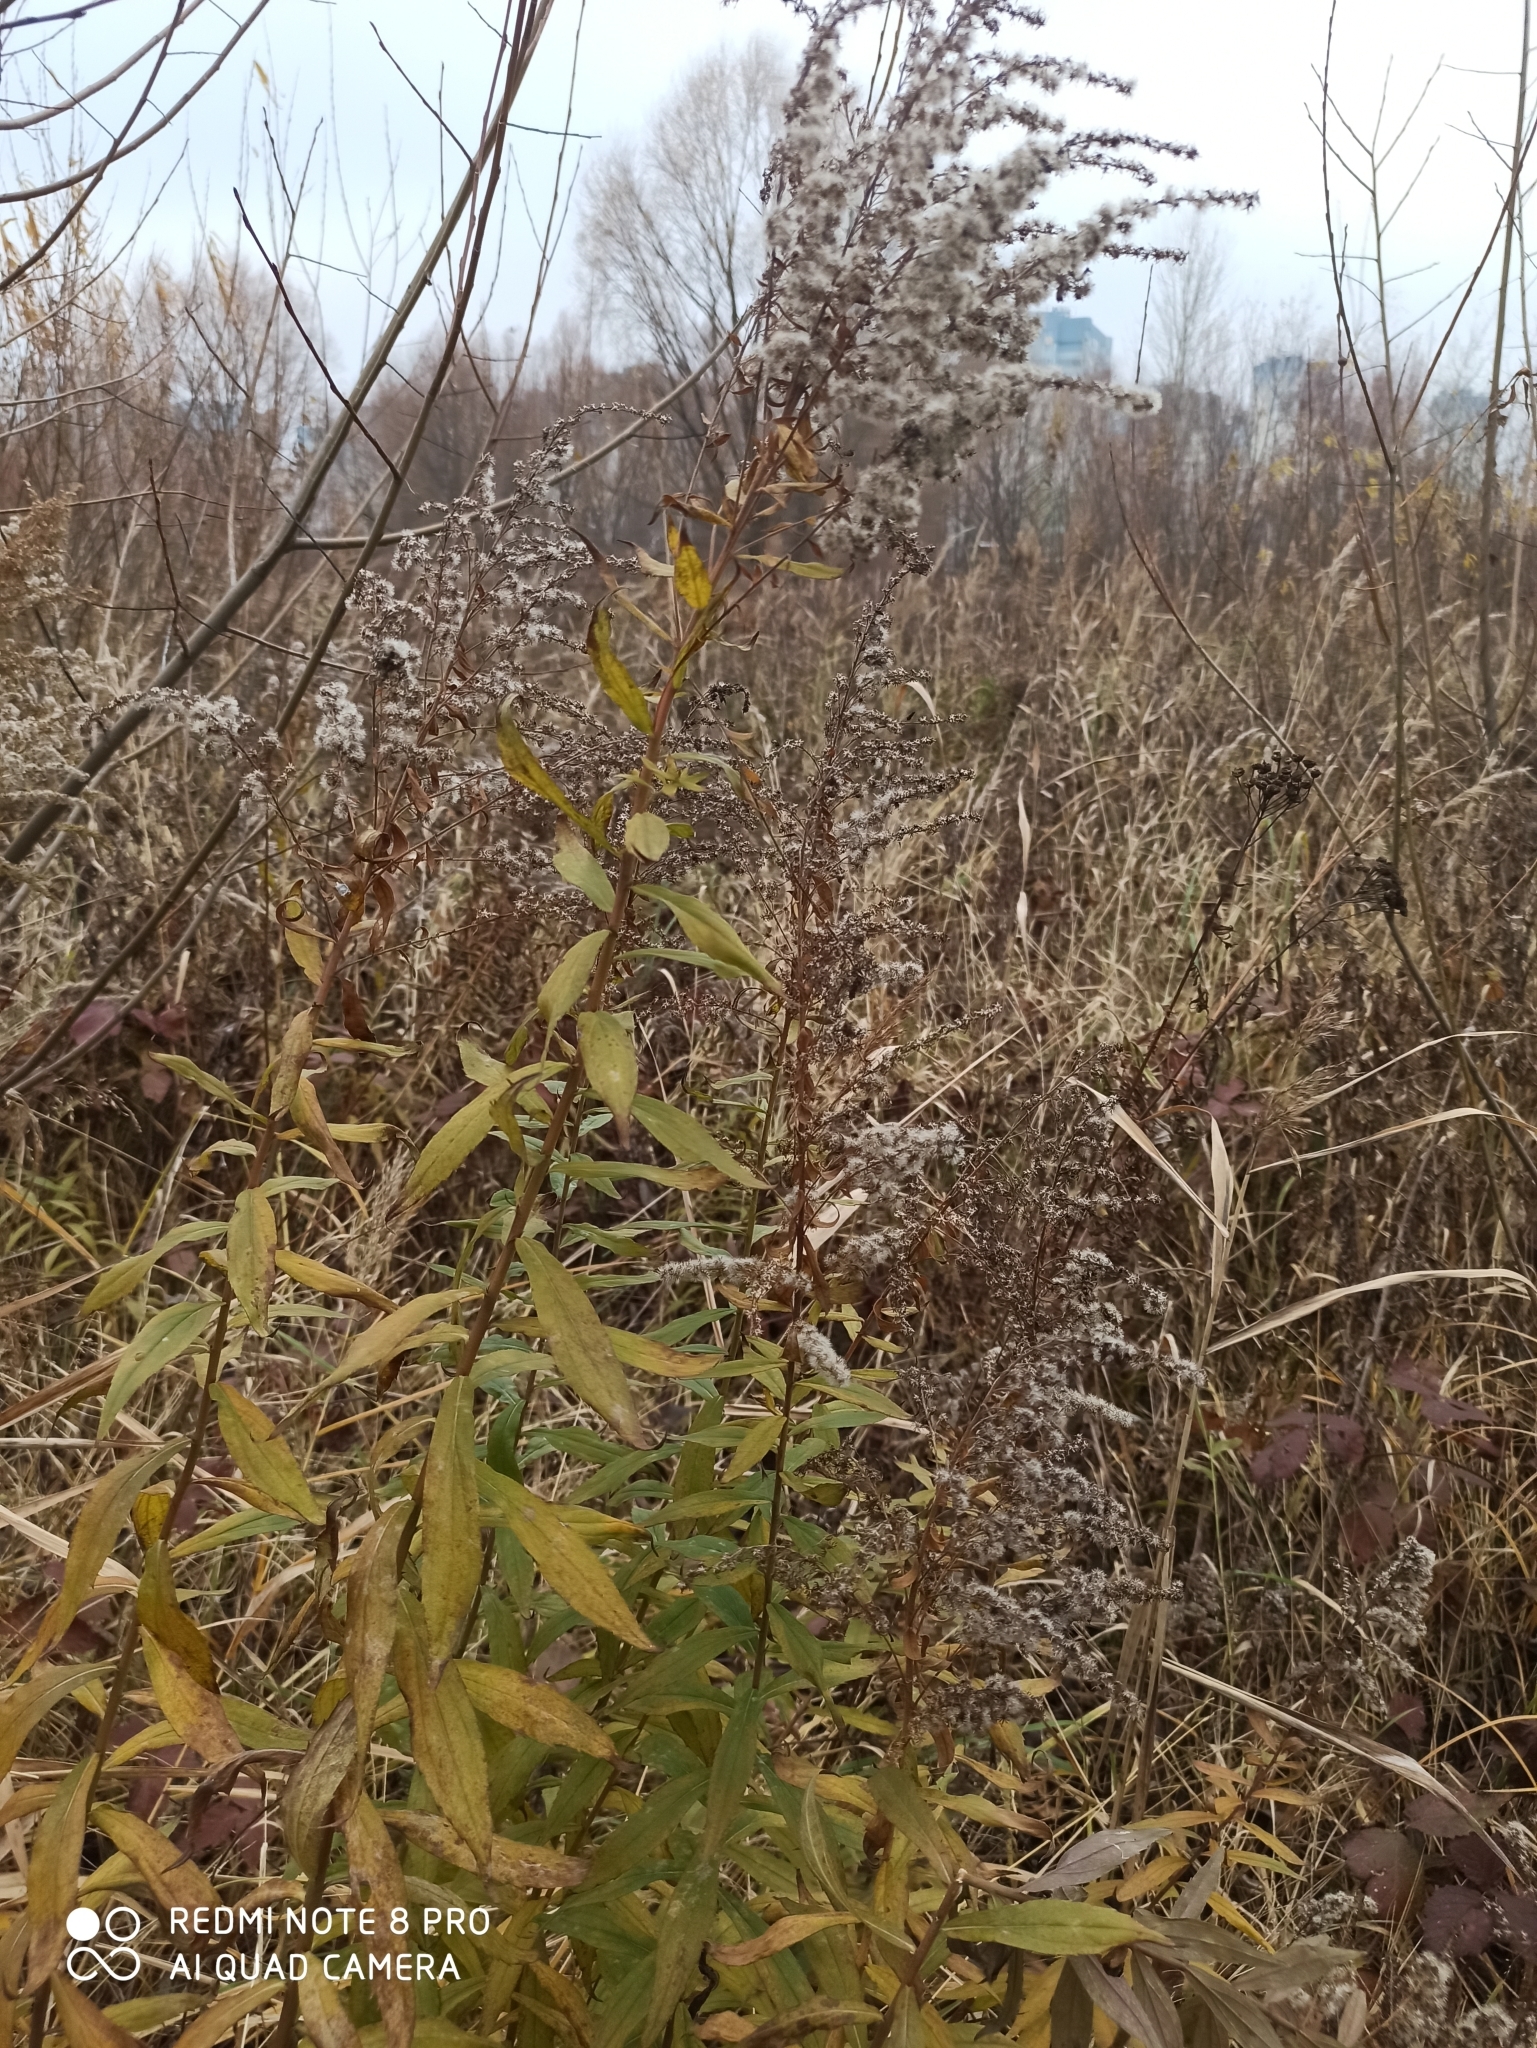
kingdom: Plantae
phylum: Tracheophyta
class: Magnoliopsida
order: Asterales
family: Asteraceae
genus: Solidago
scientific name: Solidago canadensis
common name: Canada goldenrod
